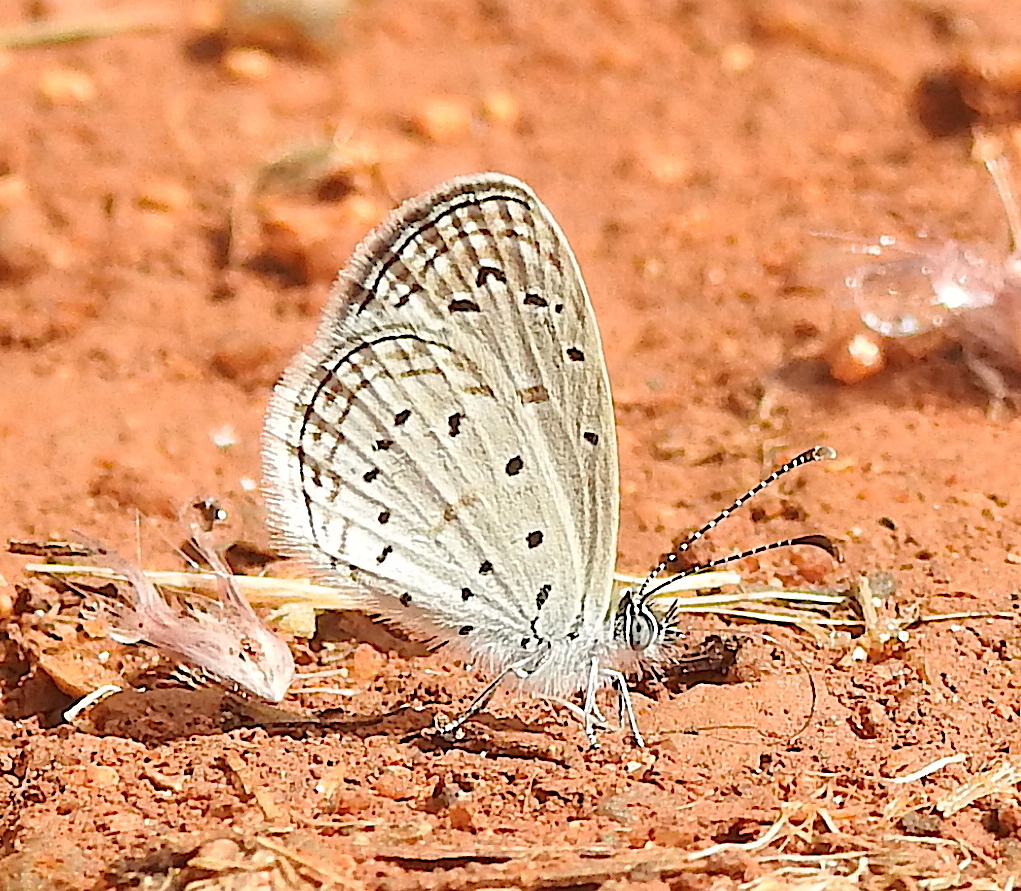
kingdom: Animalia
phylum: Arthropoda
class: Insecta
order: Lepidoptera
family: Lycaenidae
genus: Zizula
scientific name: Zizula hylax
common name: Gaika blue
